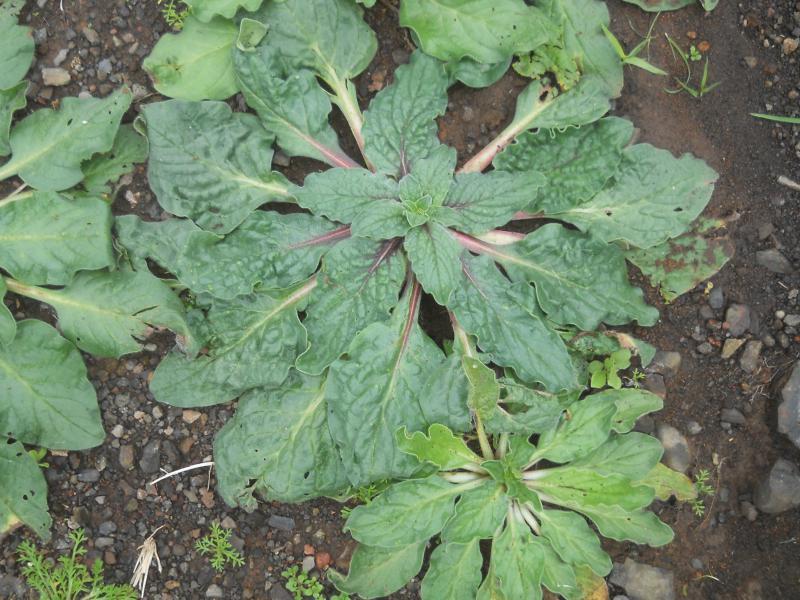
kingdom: Plantae
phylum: Tracheophyta
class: Magnoliopsida
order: Boraginales
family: Boraginaceae
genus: Echium
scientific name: Echium plantagineum
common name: Purple viper's-bugloss
